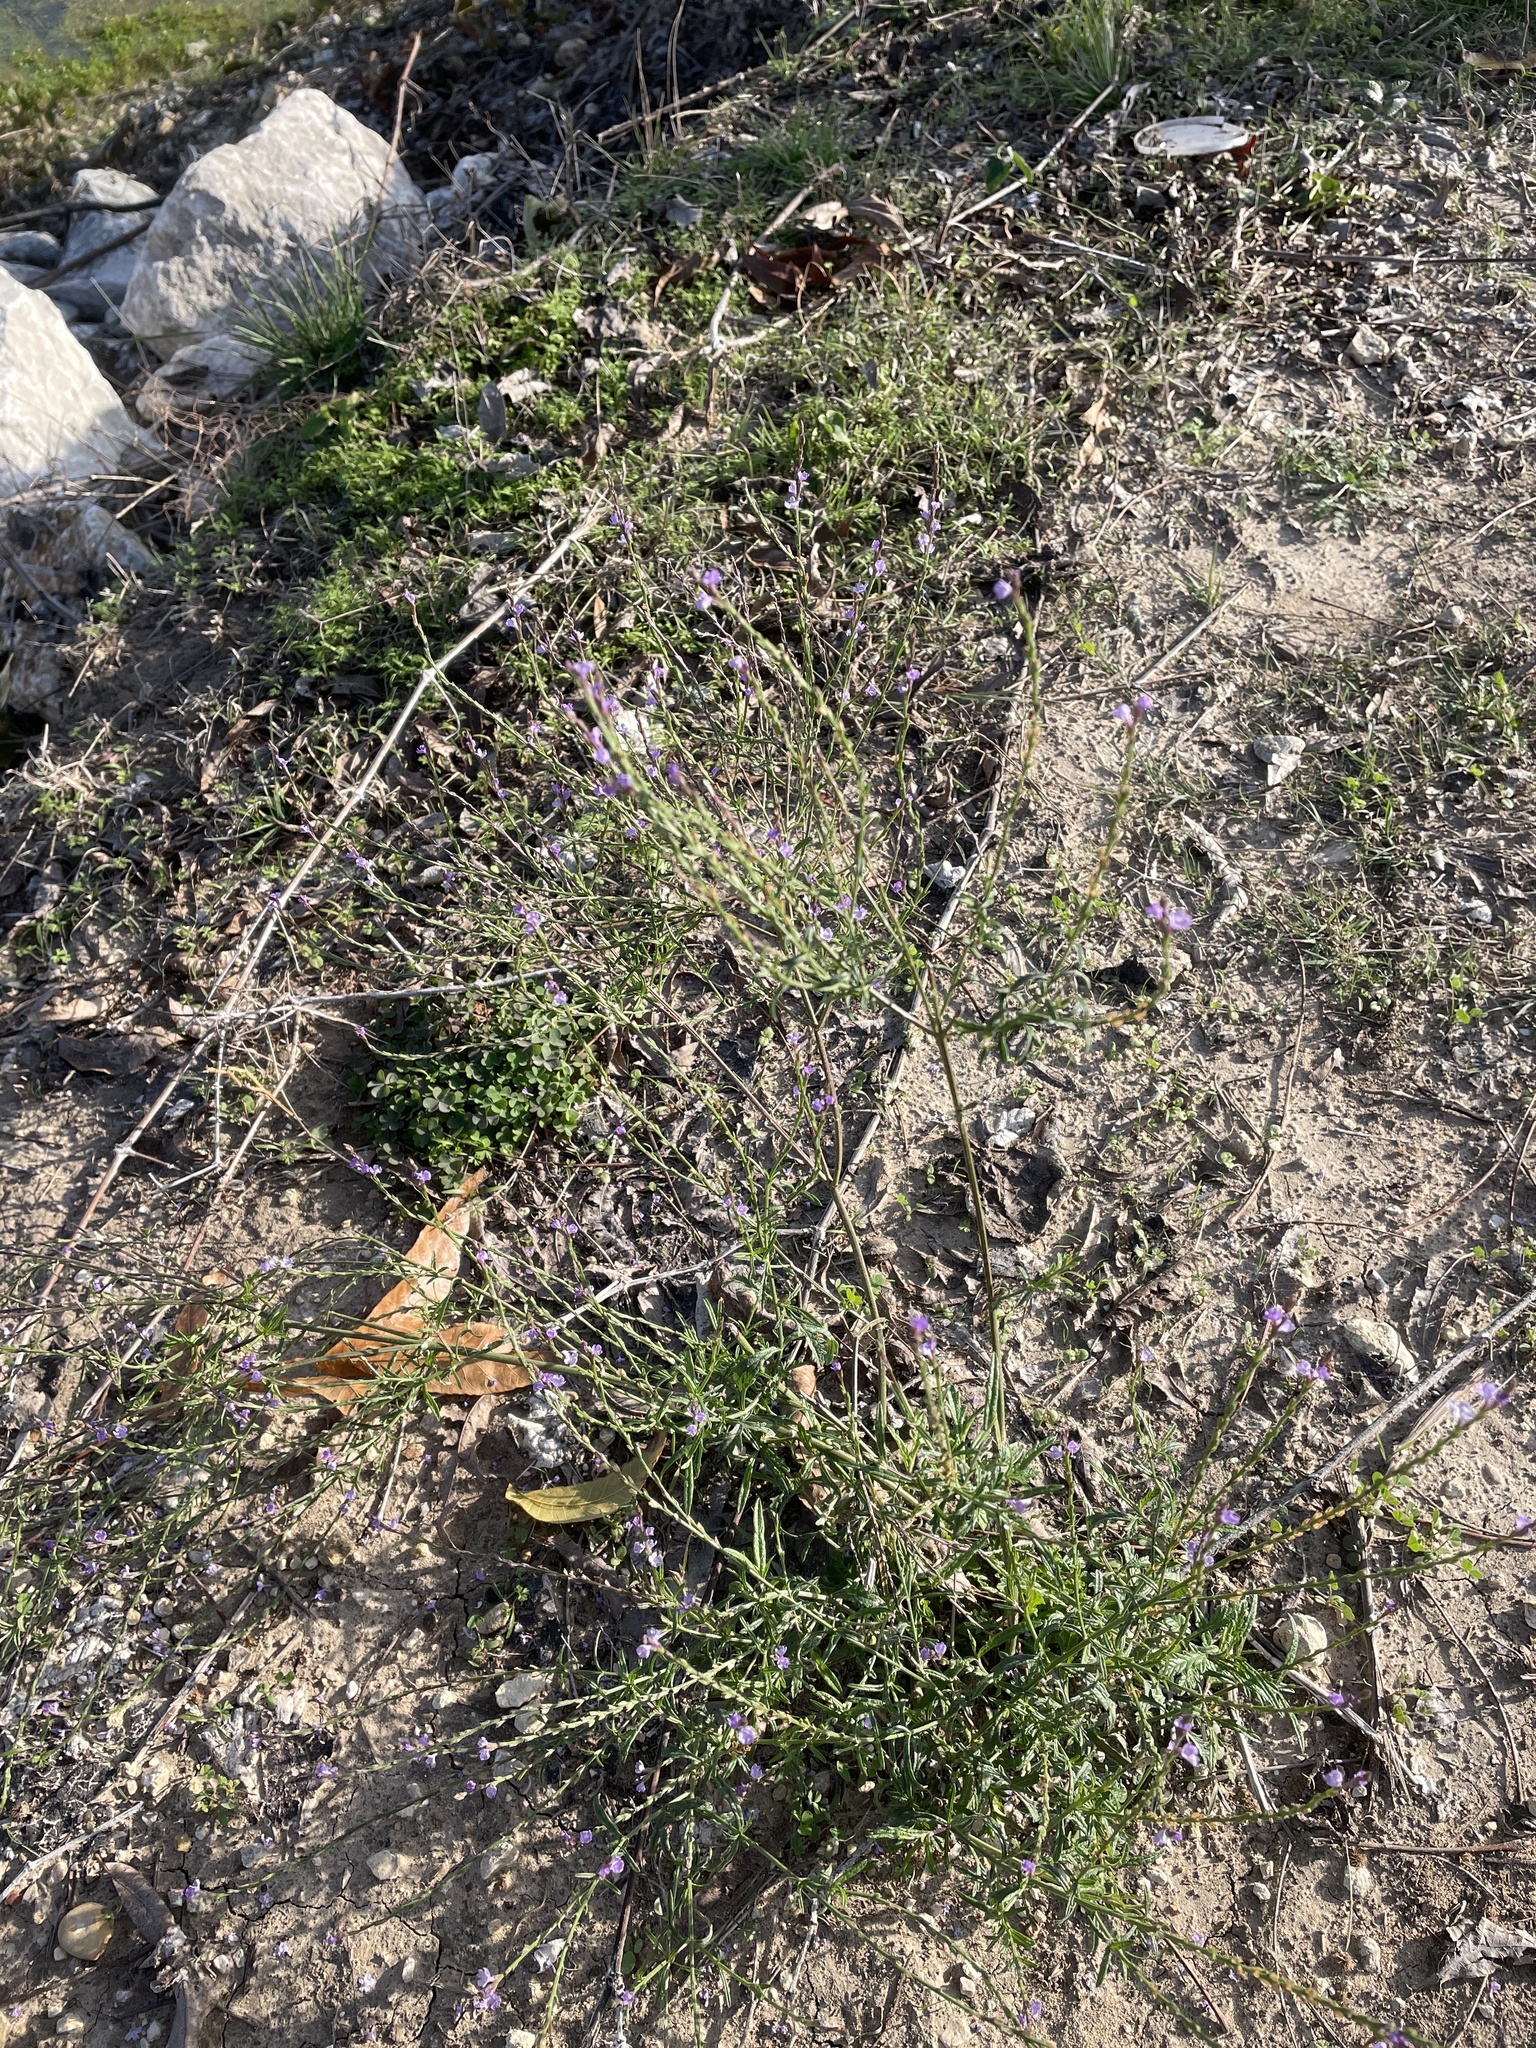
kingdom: Plantae
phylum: Tracheophyta
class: Magnoliopsida
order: Lamiales
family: Verbenaceae
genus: Verbena
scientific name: Verbena halei
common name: Texas vervain
